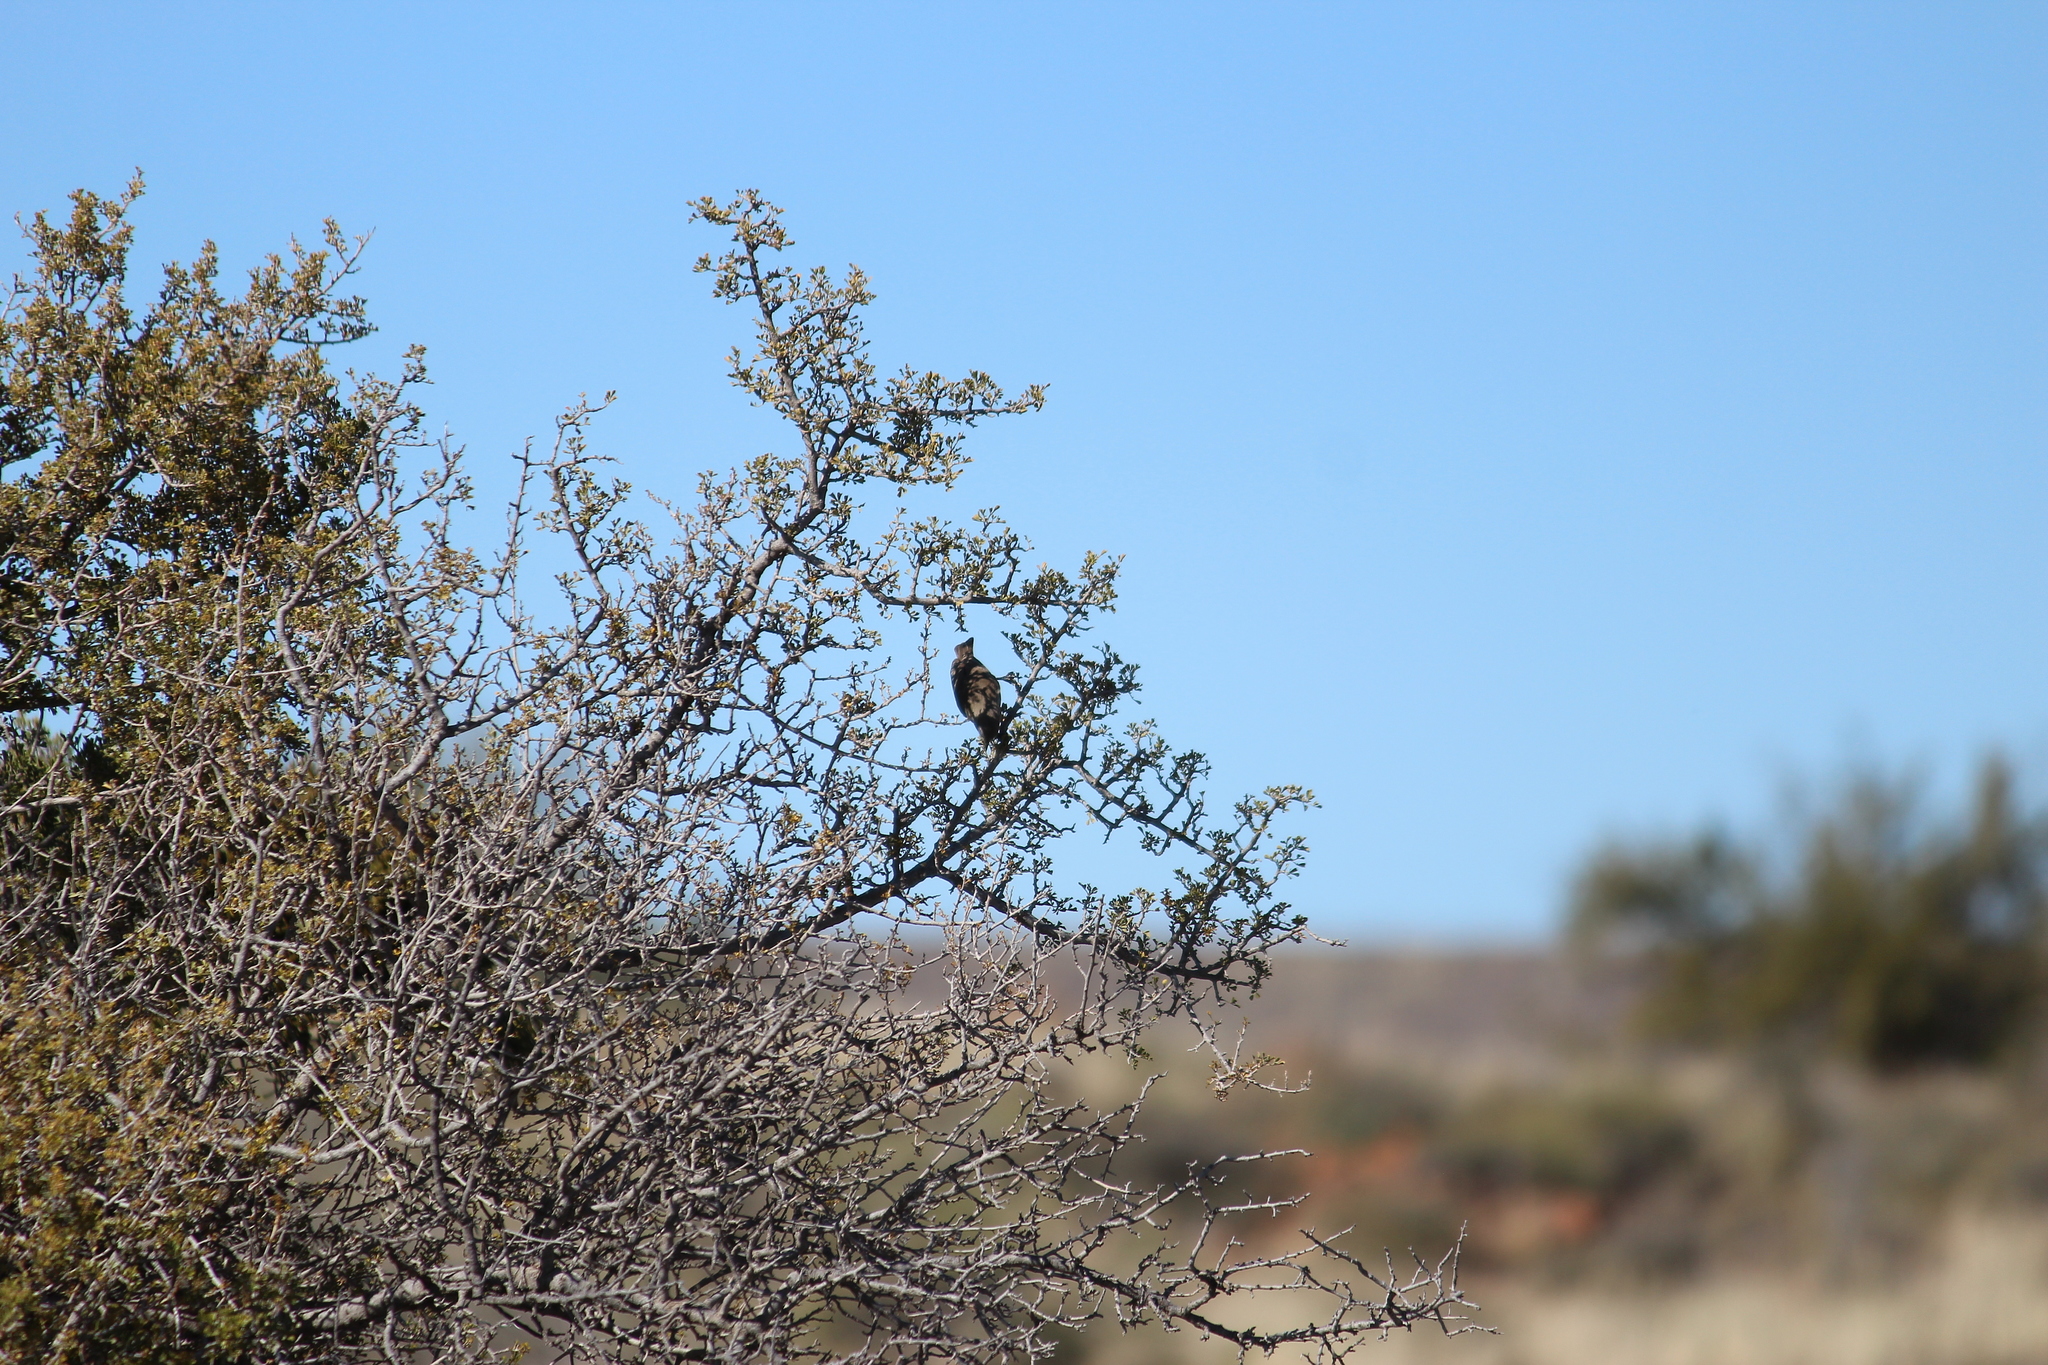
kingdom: Animalia
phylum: Chordata
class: Aves
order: Passeriformes
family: Remizidae
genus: Anthoscopus
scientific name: Anthoscopus minutus
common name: Cape penduline tit
